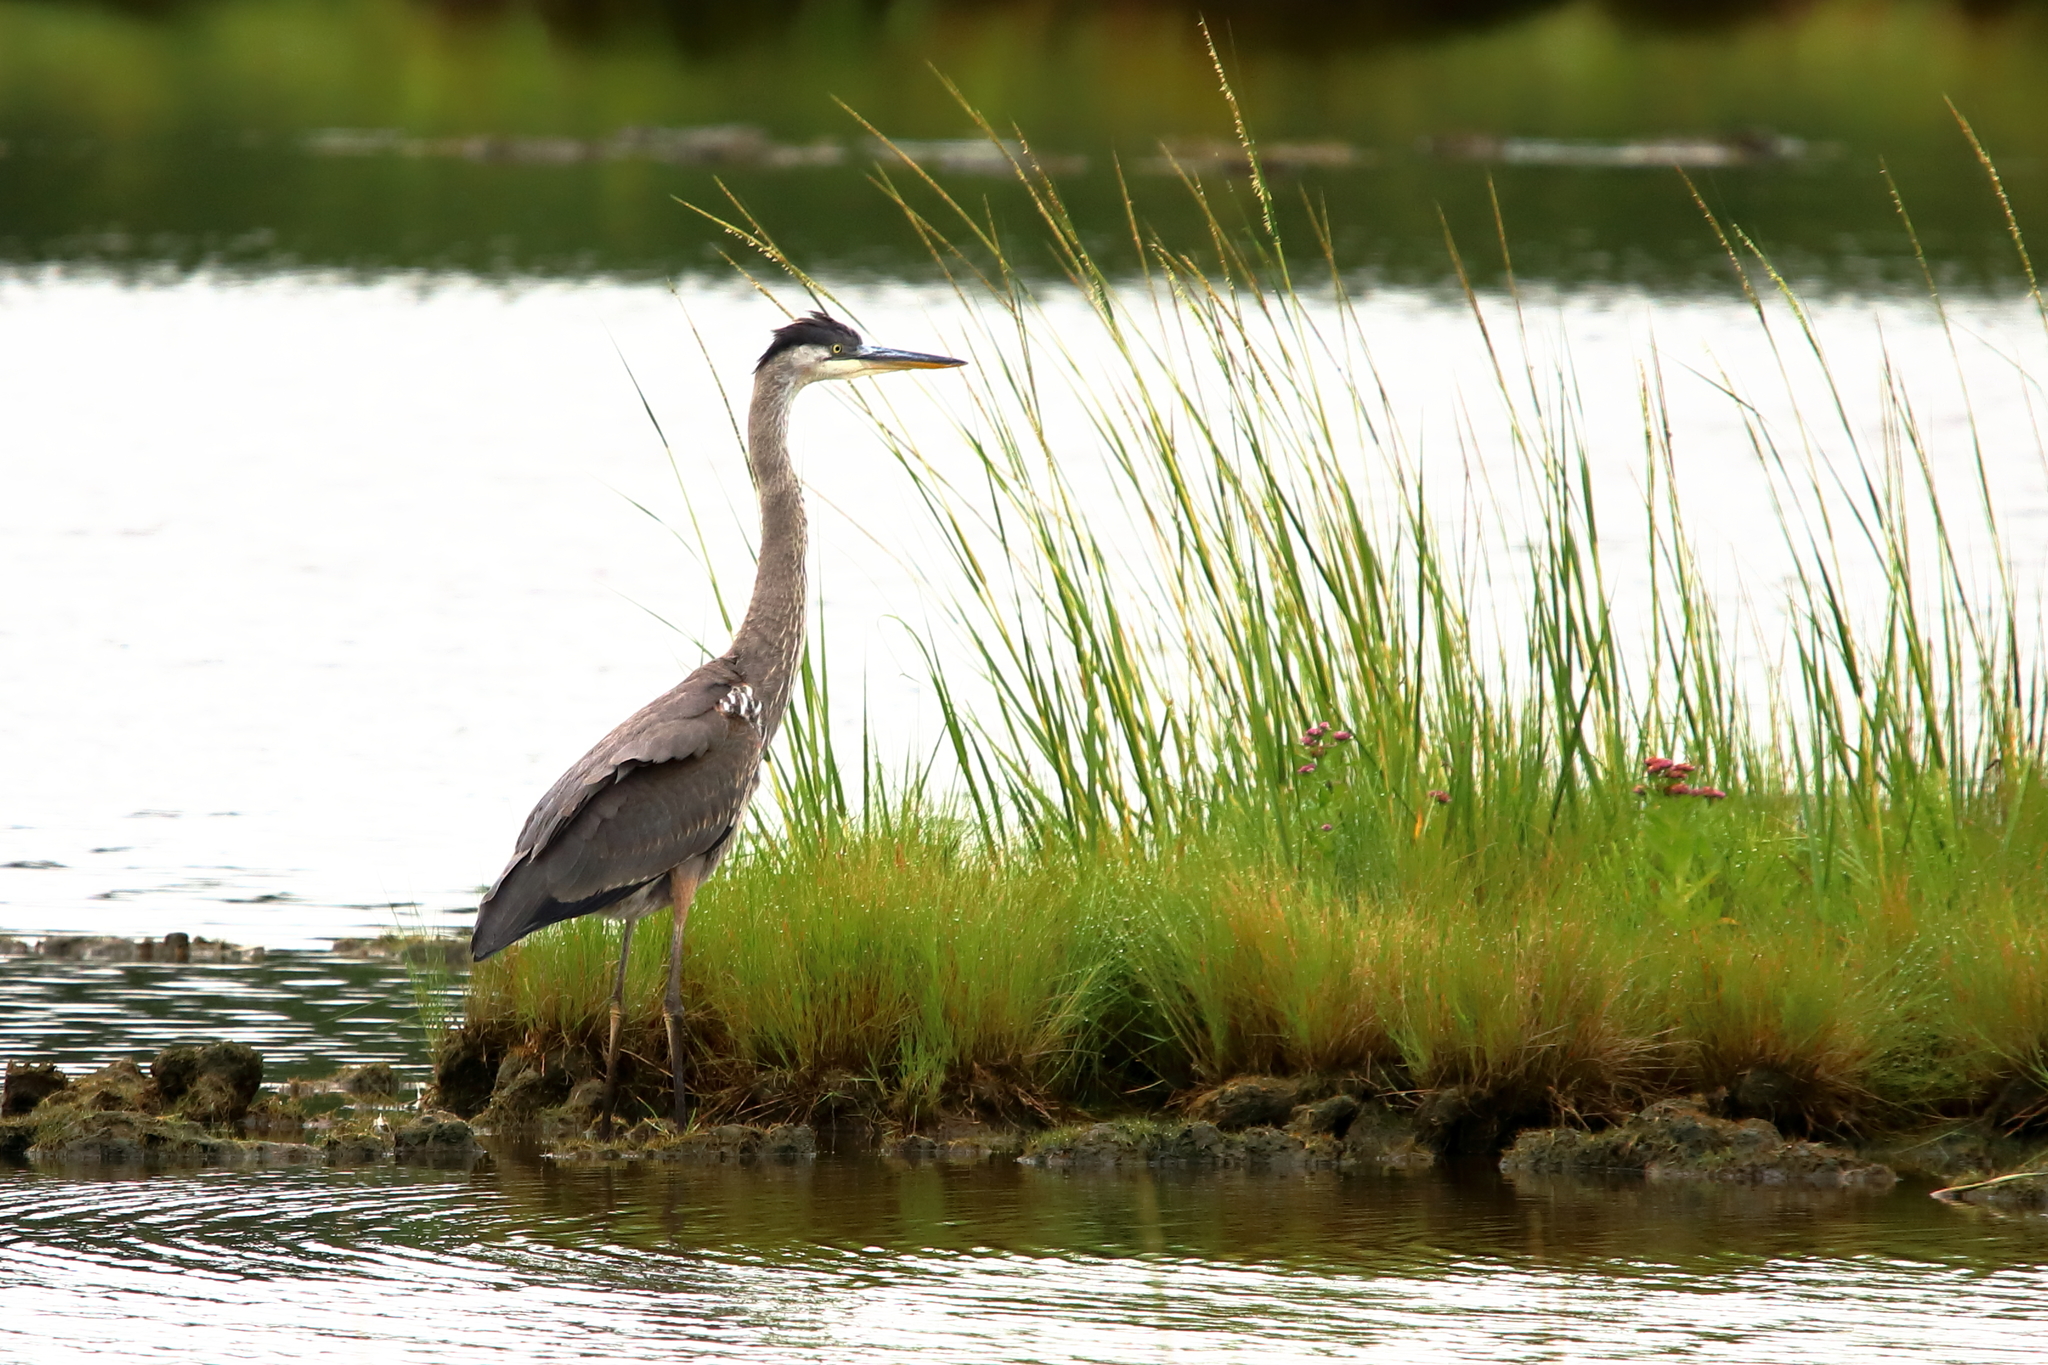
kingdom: Animalia
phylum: Chordata
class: Aves
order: Pelecaniformes
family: Ardeidae
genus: Ardea
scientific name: Ardea herodias
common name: Great blue heron
